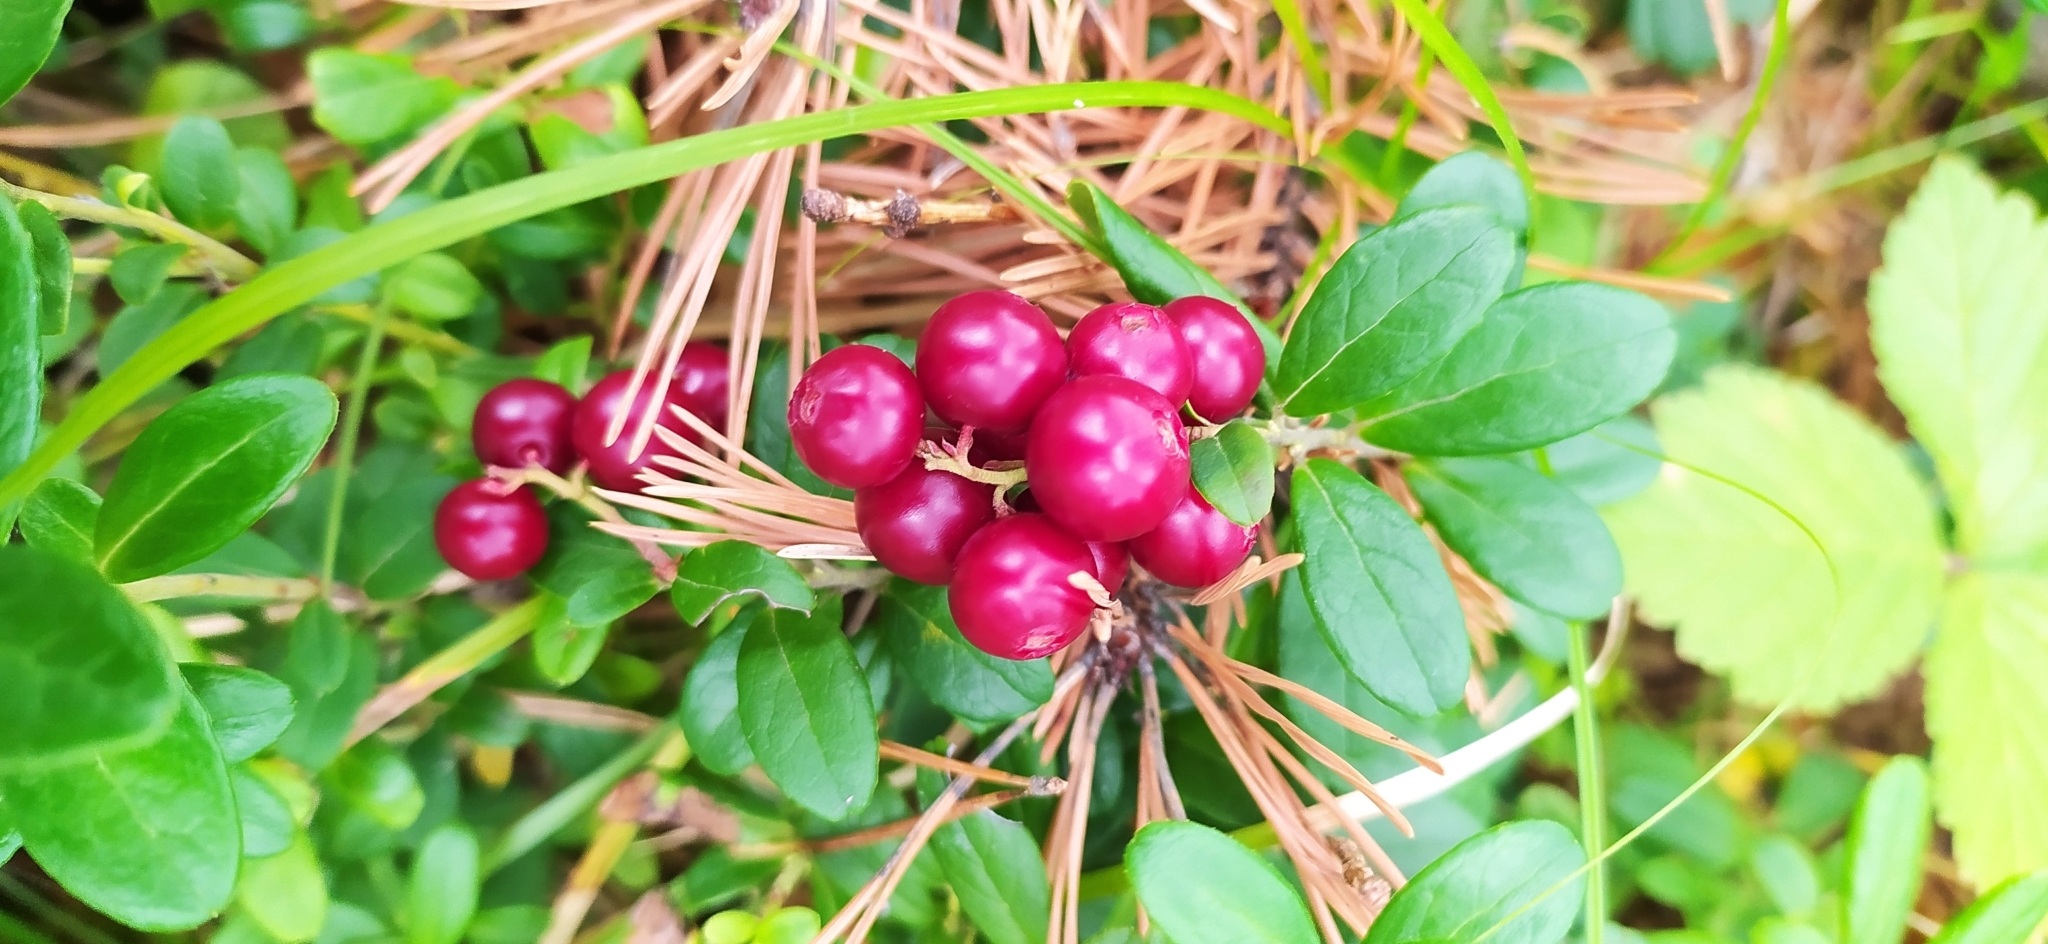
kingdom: Plantae
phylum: Tracheophyta
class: Magnoliopsida
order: Ericales
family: Ericaceae
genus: Vaccinium
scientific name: Vaccinium vitis-idaea
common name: Cowberry
